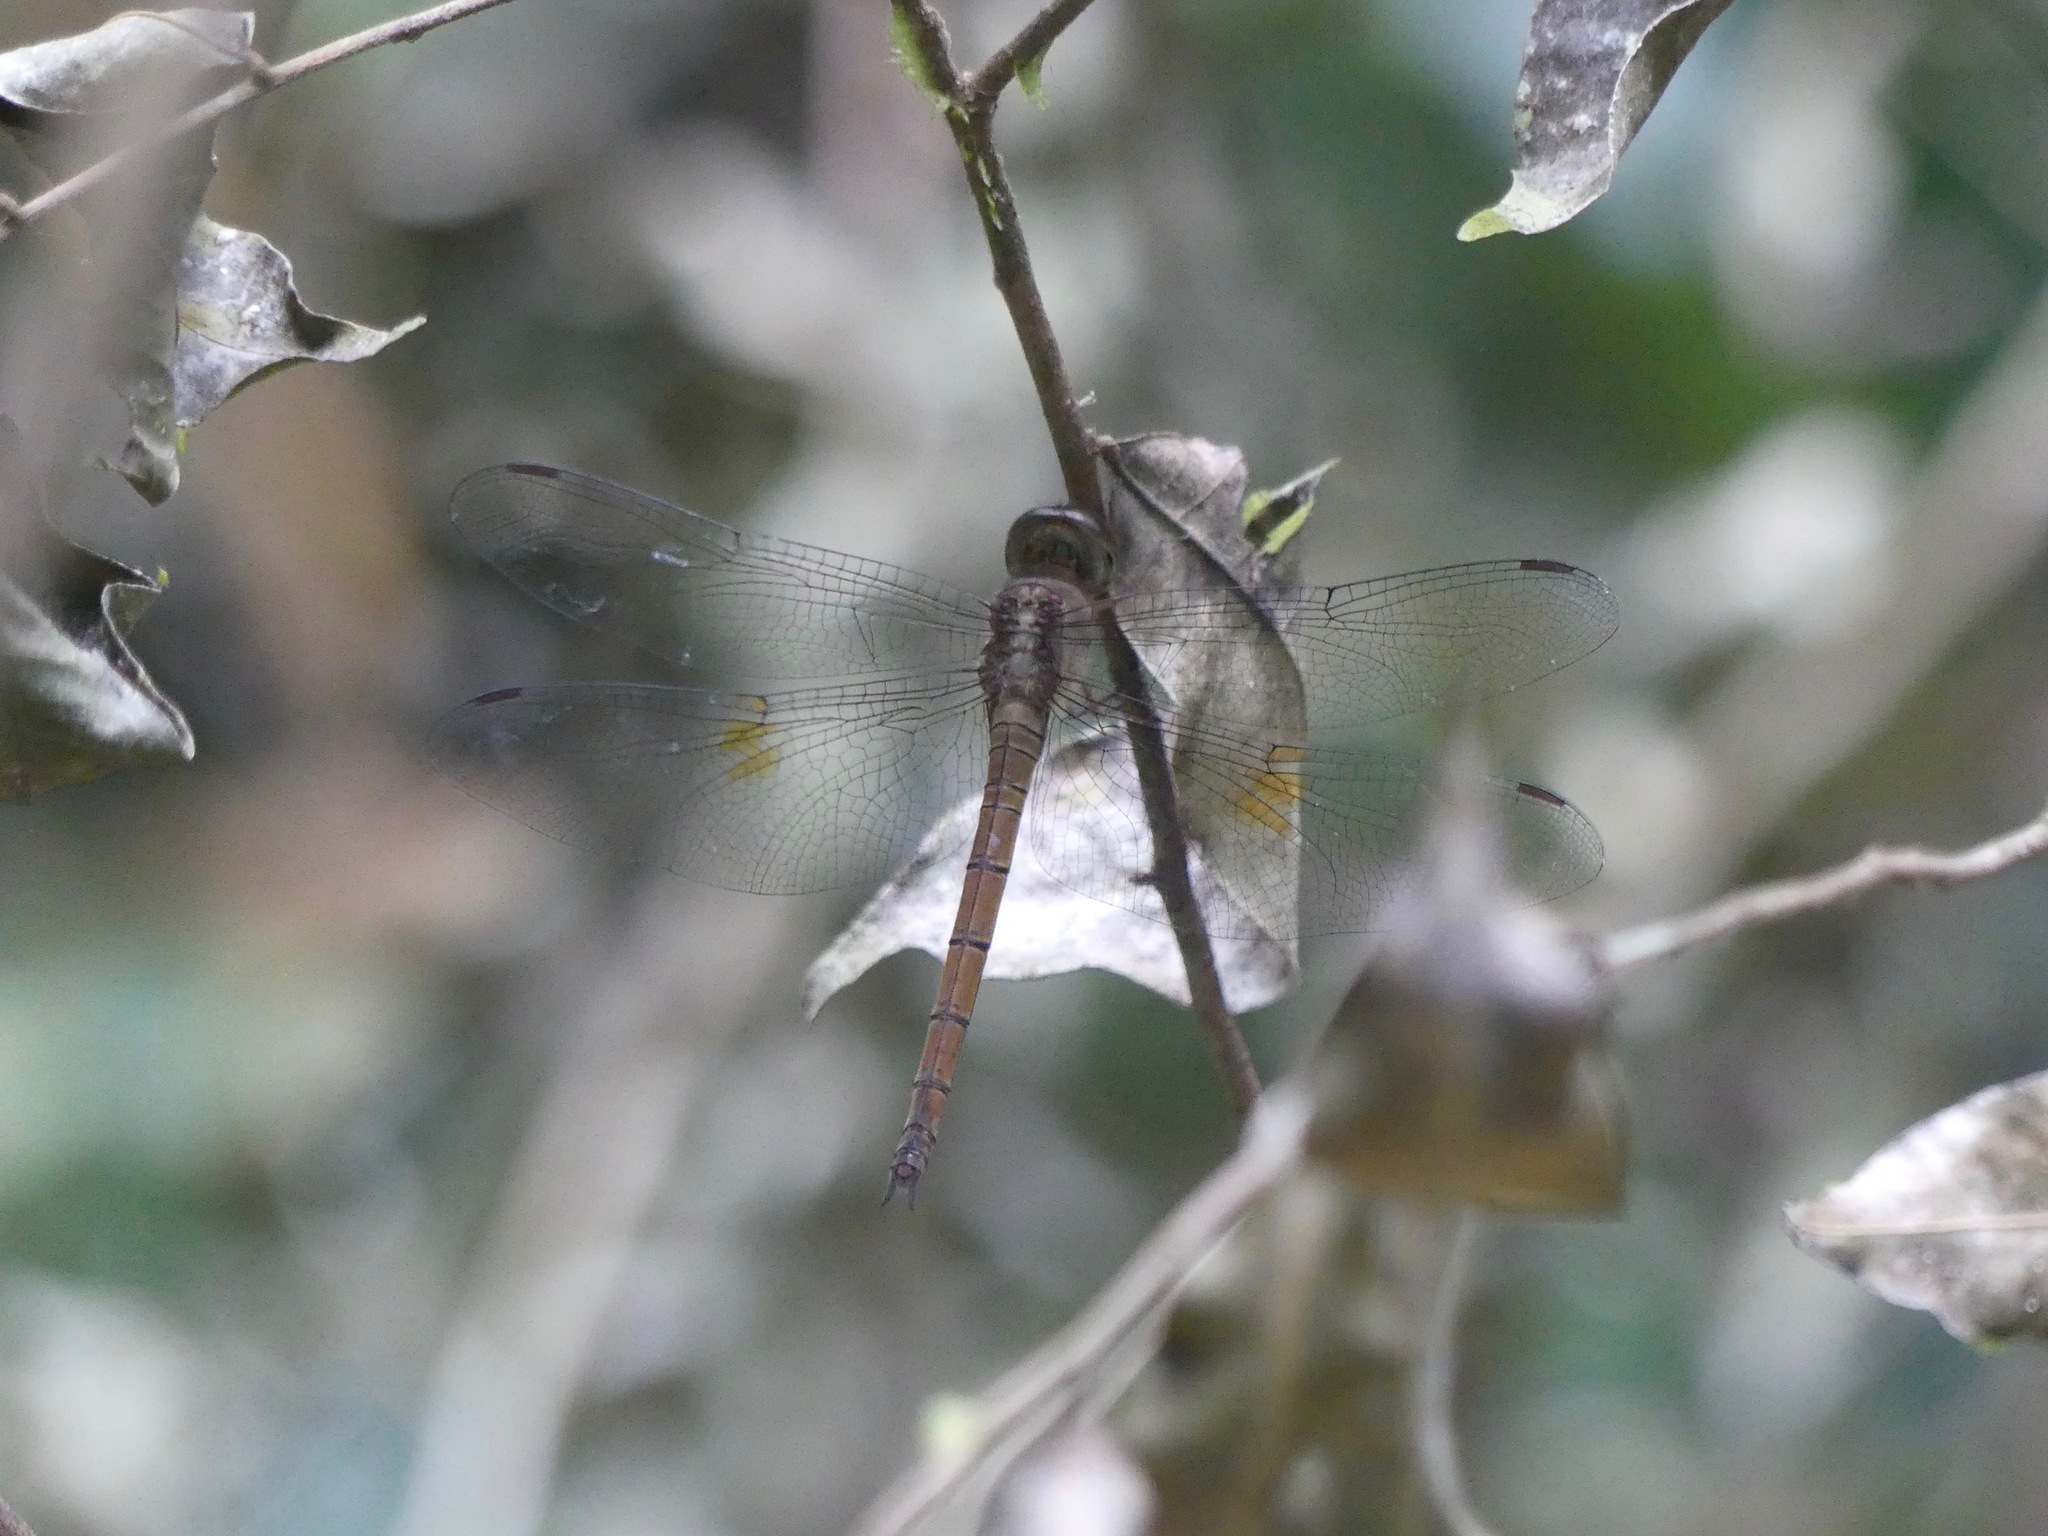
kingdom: Animalia
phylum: Arthropoda
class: Insecta
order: Odonata
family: Libellulidae
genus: Tholymis
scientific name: Tholymis citrina
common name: Evening skimmer
